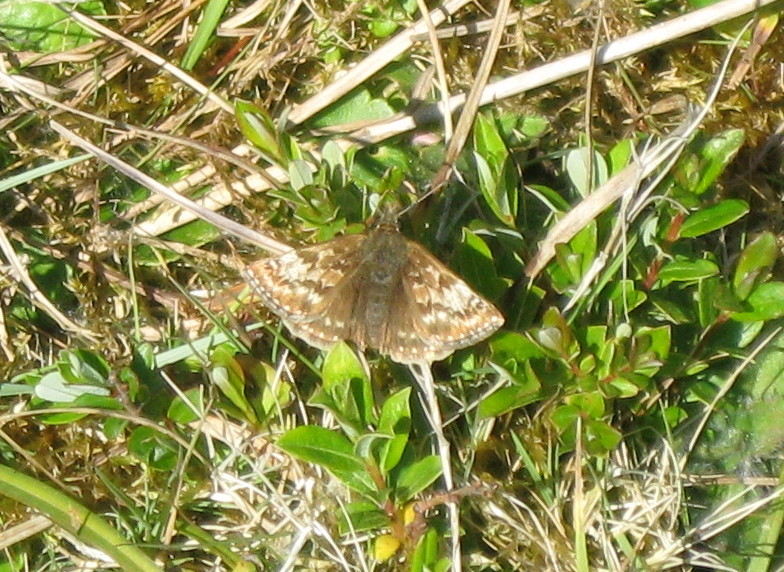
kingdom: Animalia
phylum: Arthropoda
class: Insecta
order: Lepidoptera
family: Hesperiidae
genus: Erynnis
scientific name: Erynnis tages
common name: Dingy skipper
